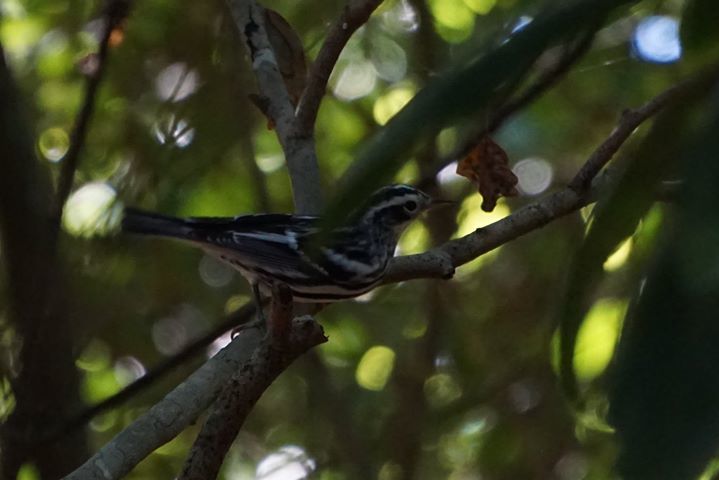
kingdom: Animalia
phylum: Chordata
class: Aves
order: Passeriformes
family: Parulidae
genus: Mniotilta
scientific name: Mniotilta varia
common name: Black-and-white warbler
